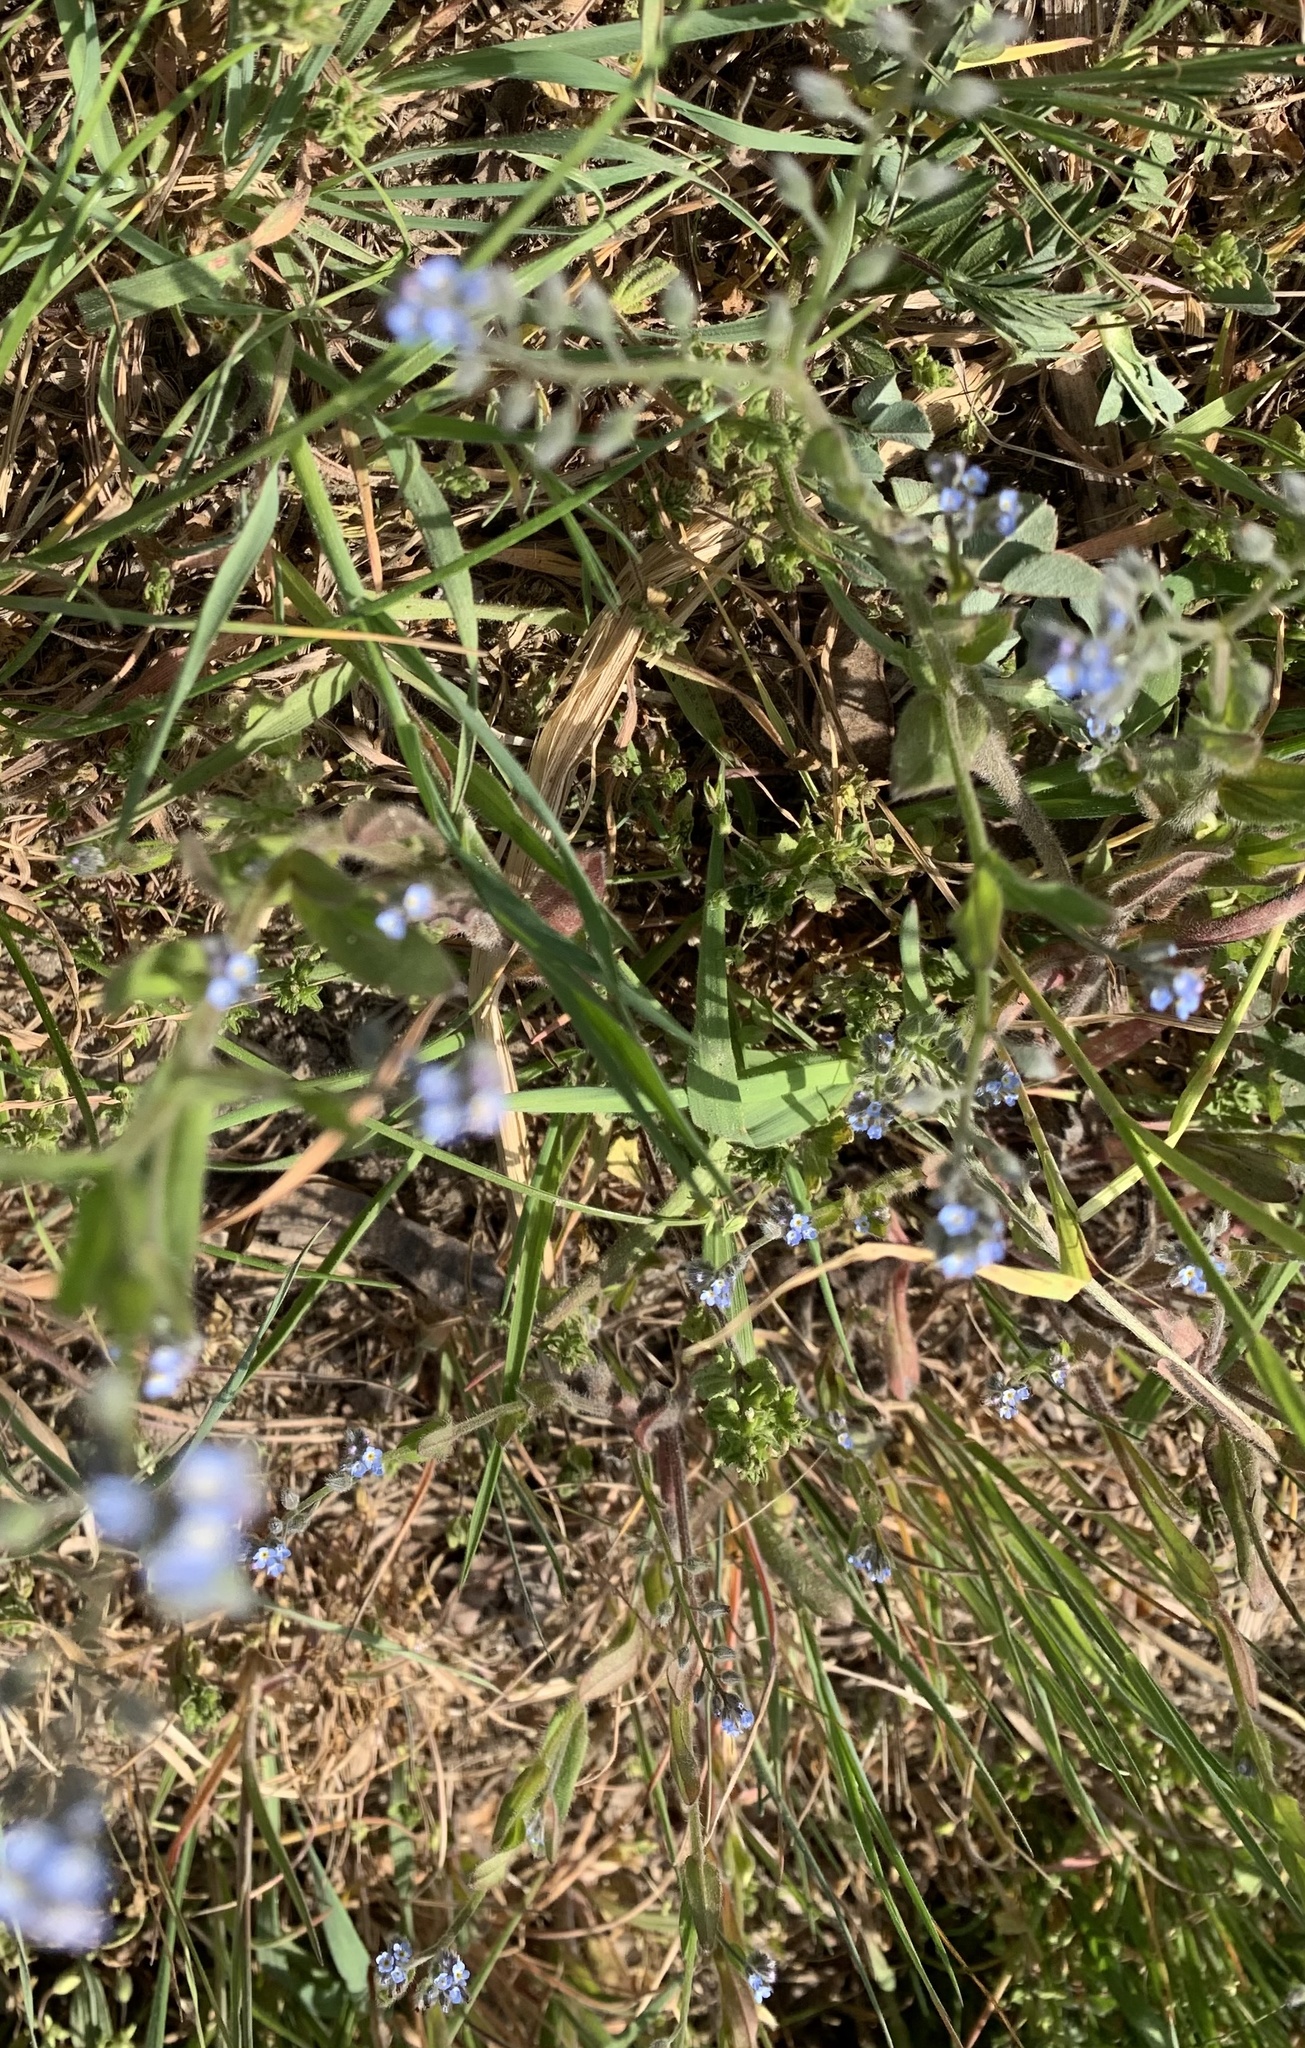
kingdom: Plantae
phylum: Tracheophyta
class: Magnoliopsida
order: Boraginales
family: Boraginaceae
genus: Myosotis
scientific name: Myosotis arvensis
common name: Field forget-me-not
